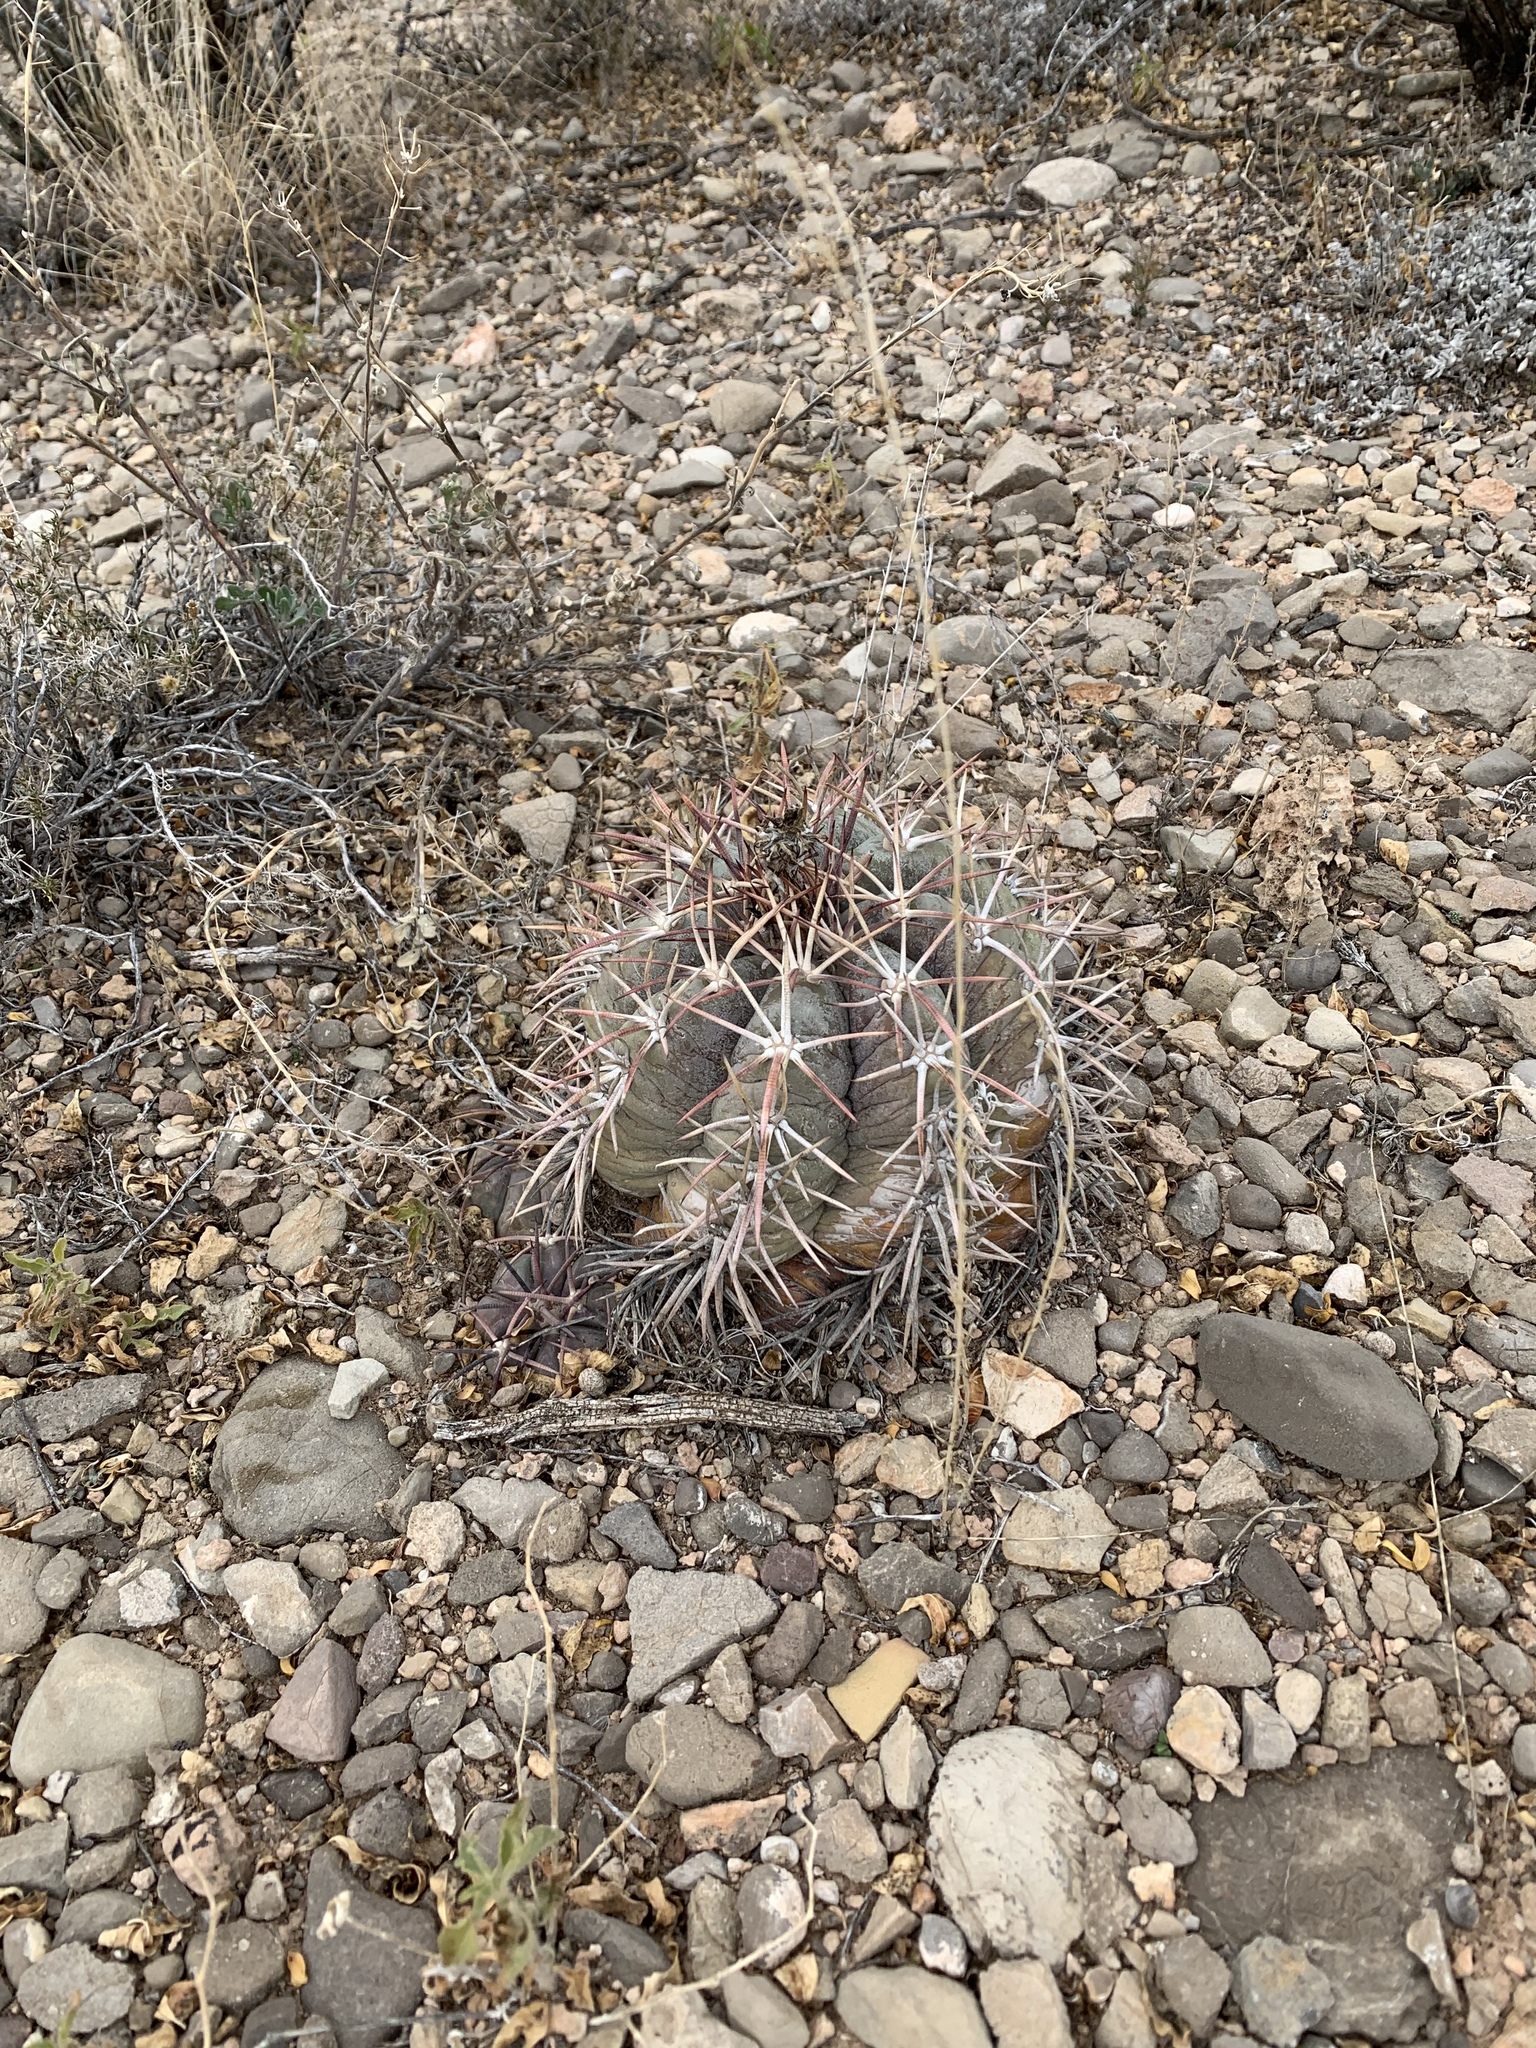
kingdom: Plantae
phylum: Tracheophyta
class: Magnoliopsida
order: Caryophyllales
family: Cactaceae
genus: Echinocactus
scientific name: Echinocactus horizonthalonius
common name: Devilshead
